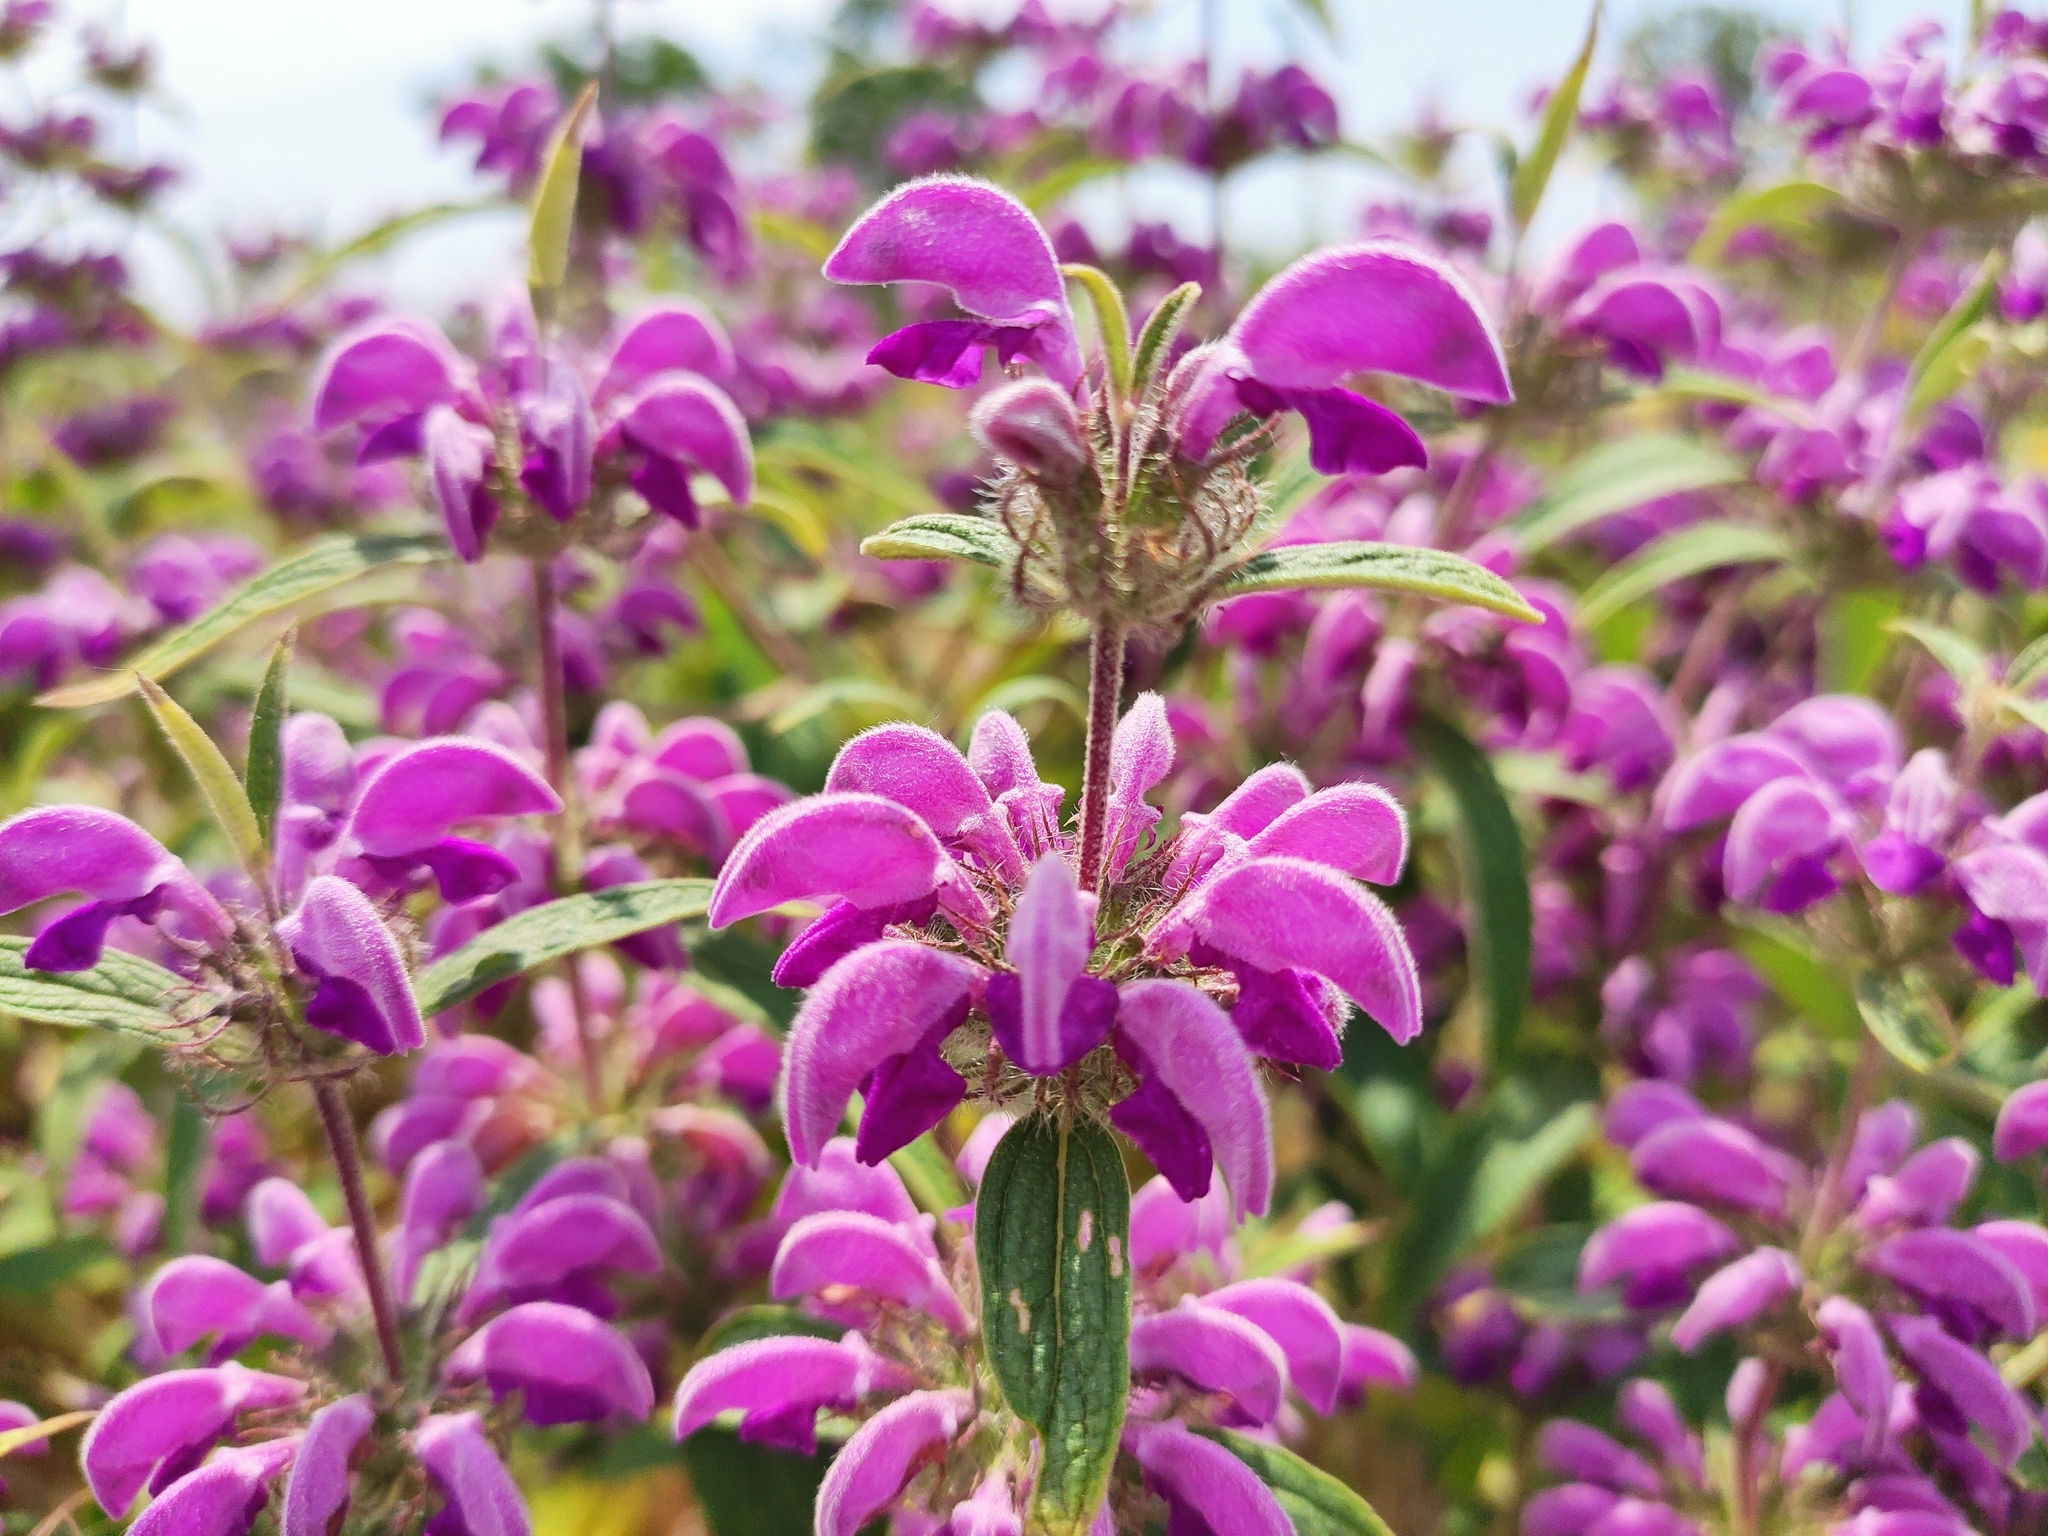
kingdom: Plantae
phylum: Tracheophyta
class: Magnoliopsida
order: Lamiales
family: Lamiaceae
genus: Phlomis
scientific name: Phlomis herba-venti
